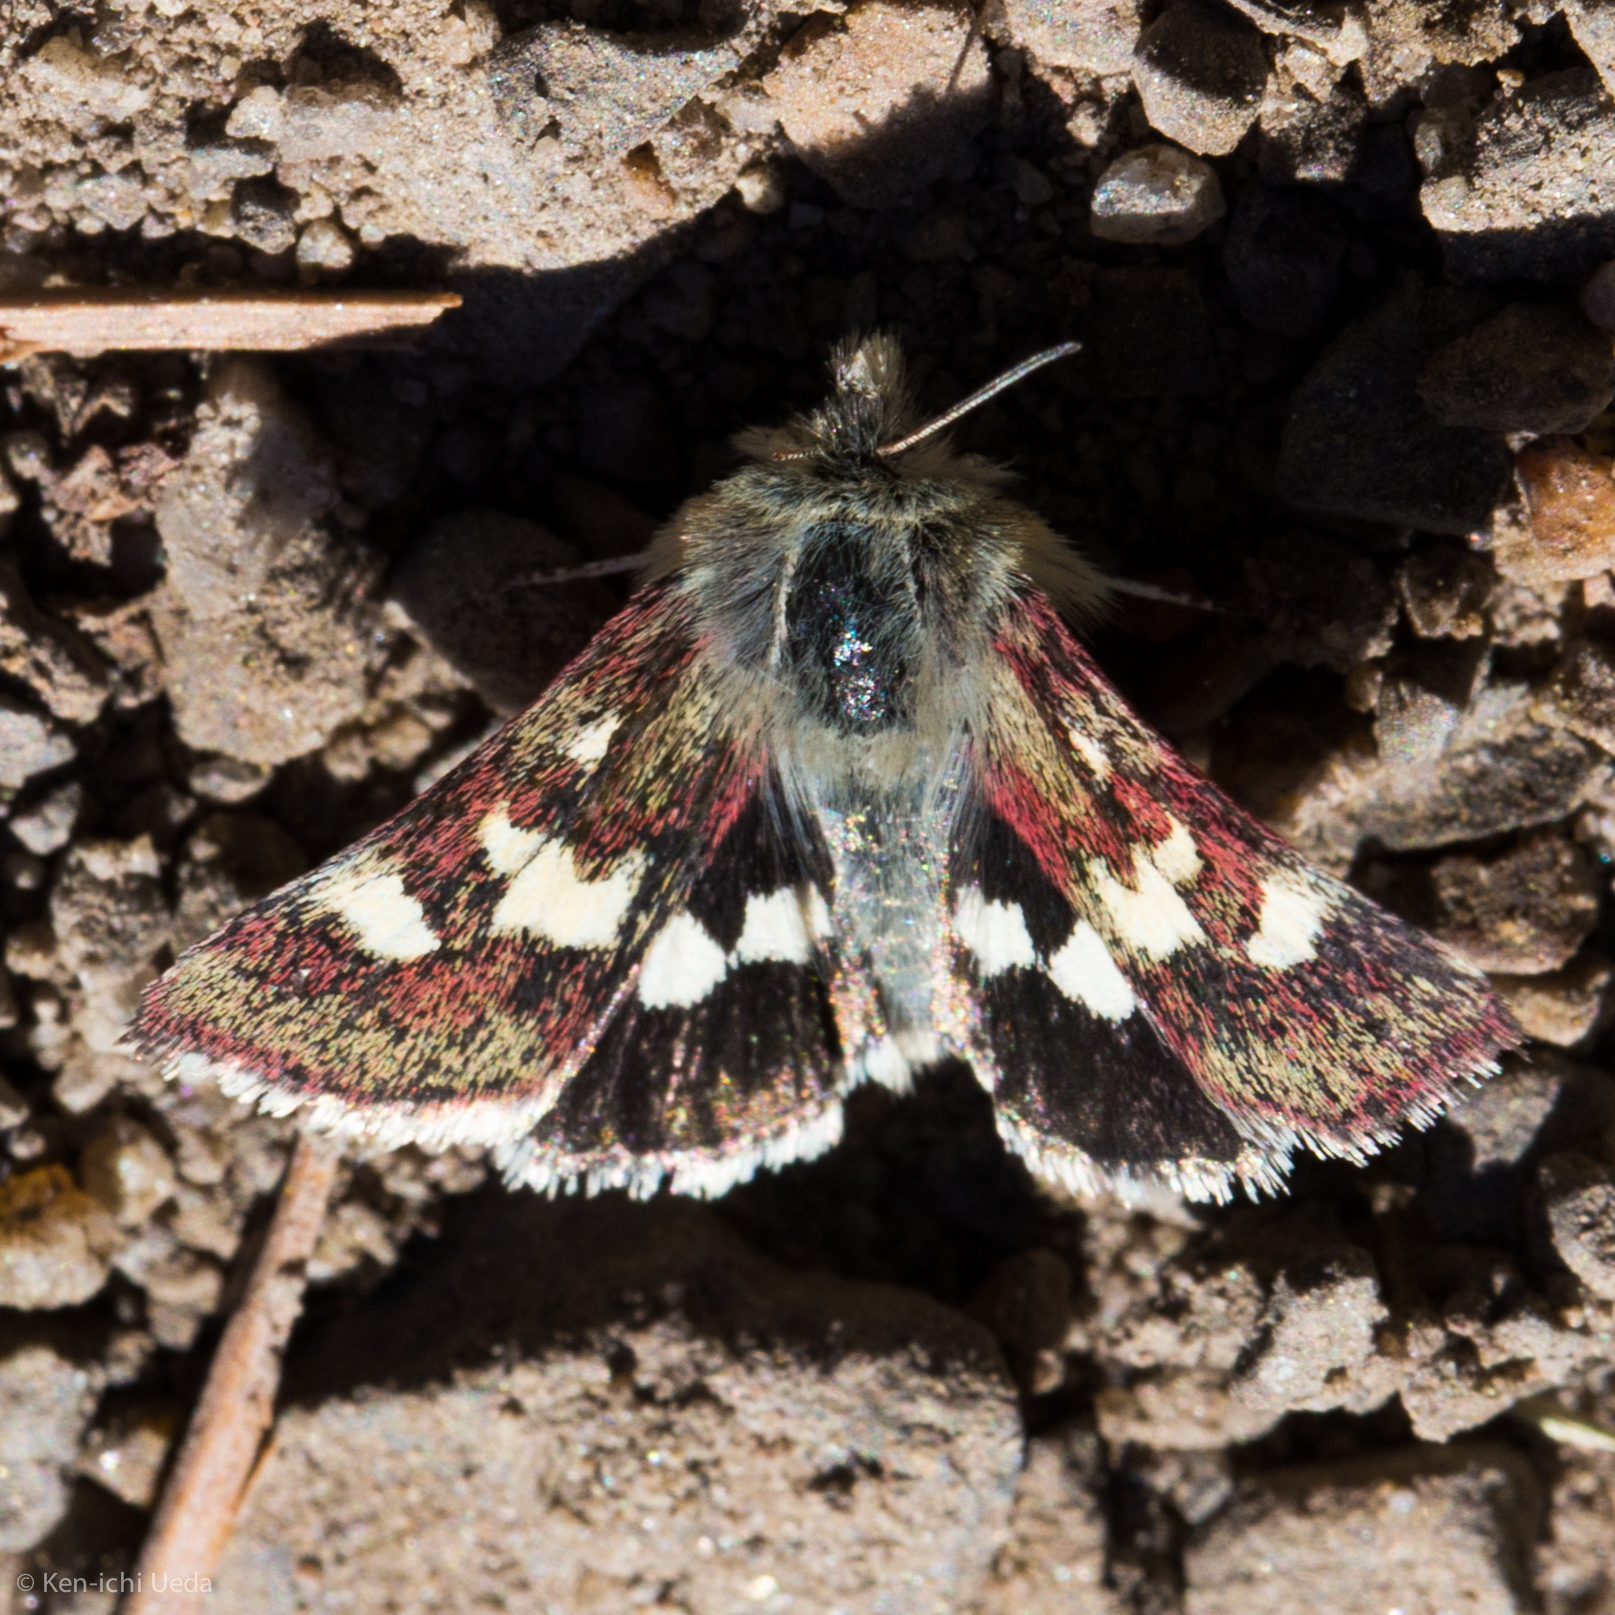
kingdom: Animalia
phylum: Arthropoda
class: Insecta
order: Lepidoptera
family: Noctuidae
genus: Eutricopis
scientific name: Eutricopis nexilis
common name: White-spotted midget moth
